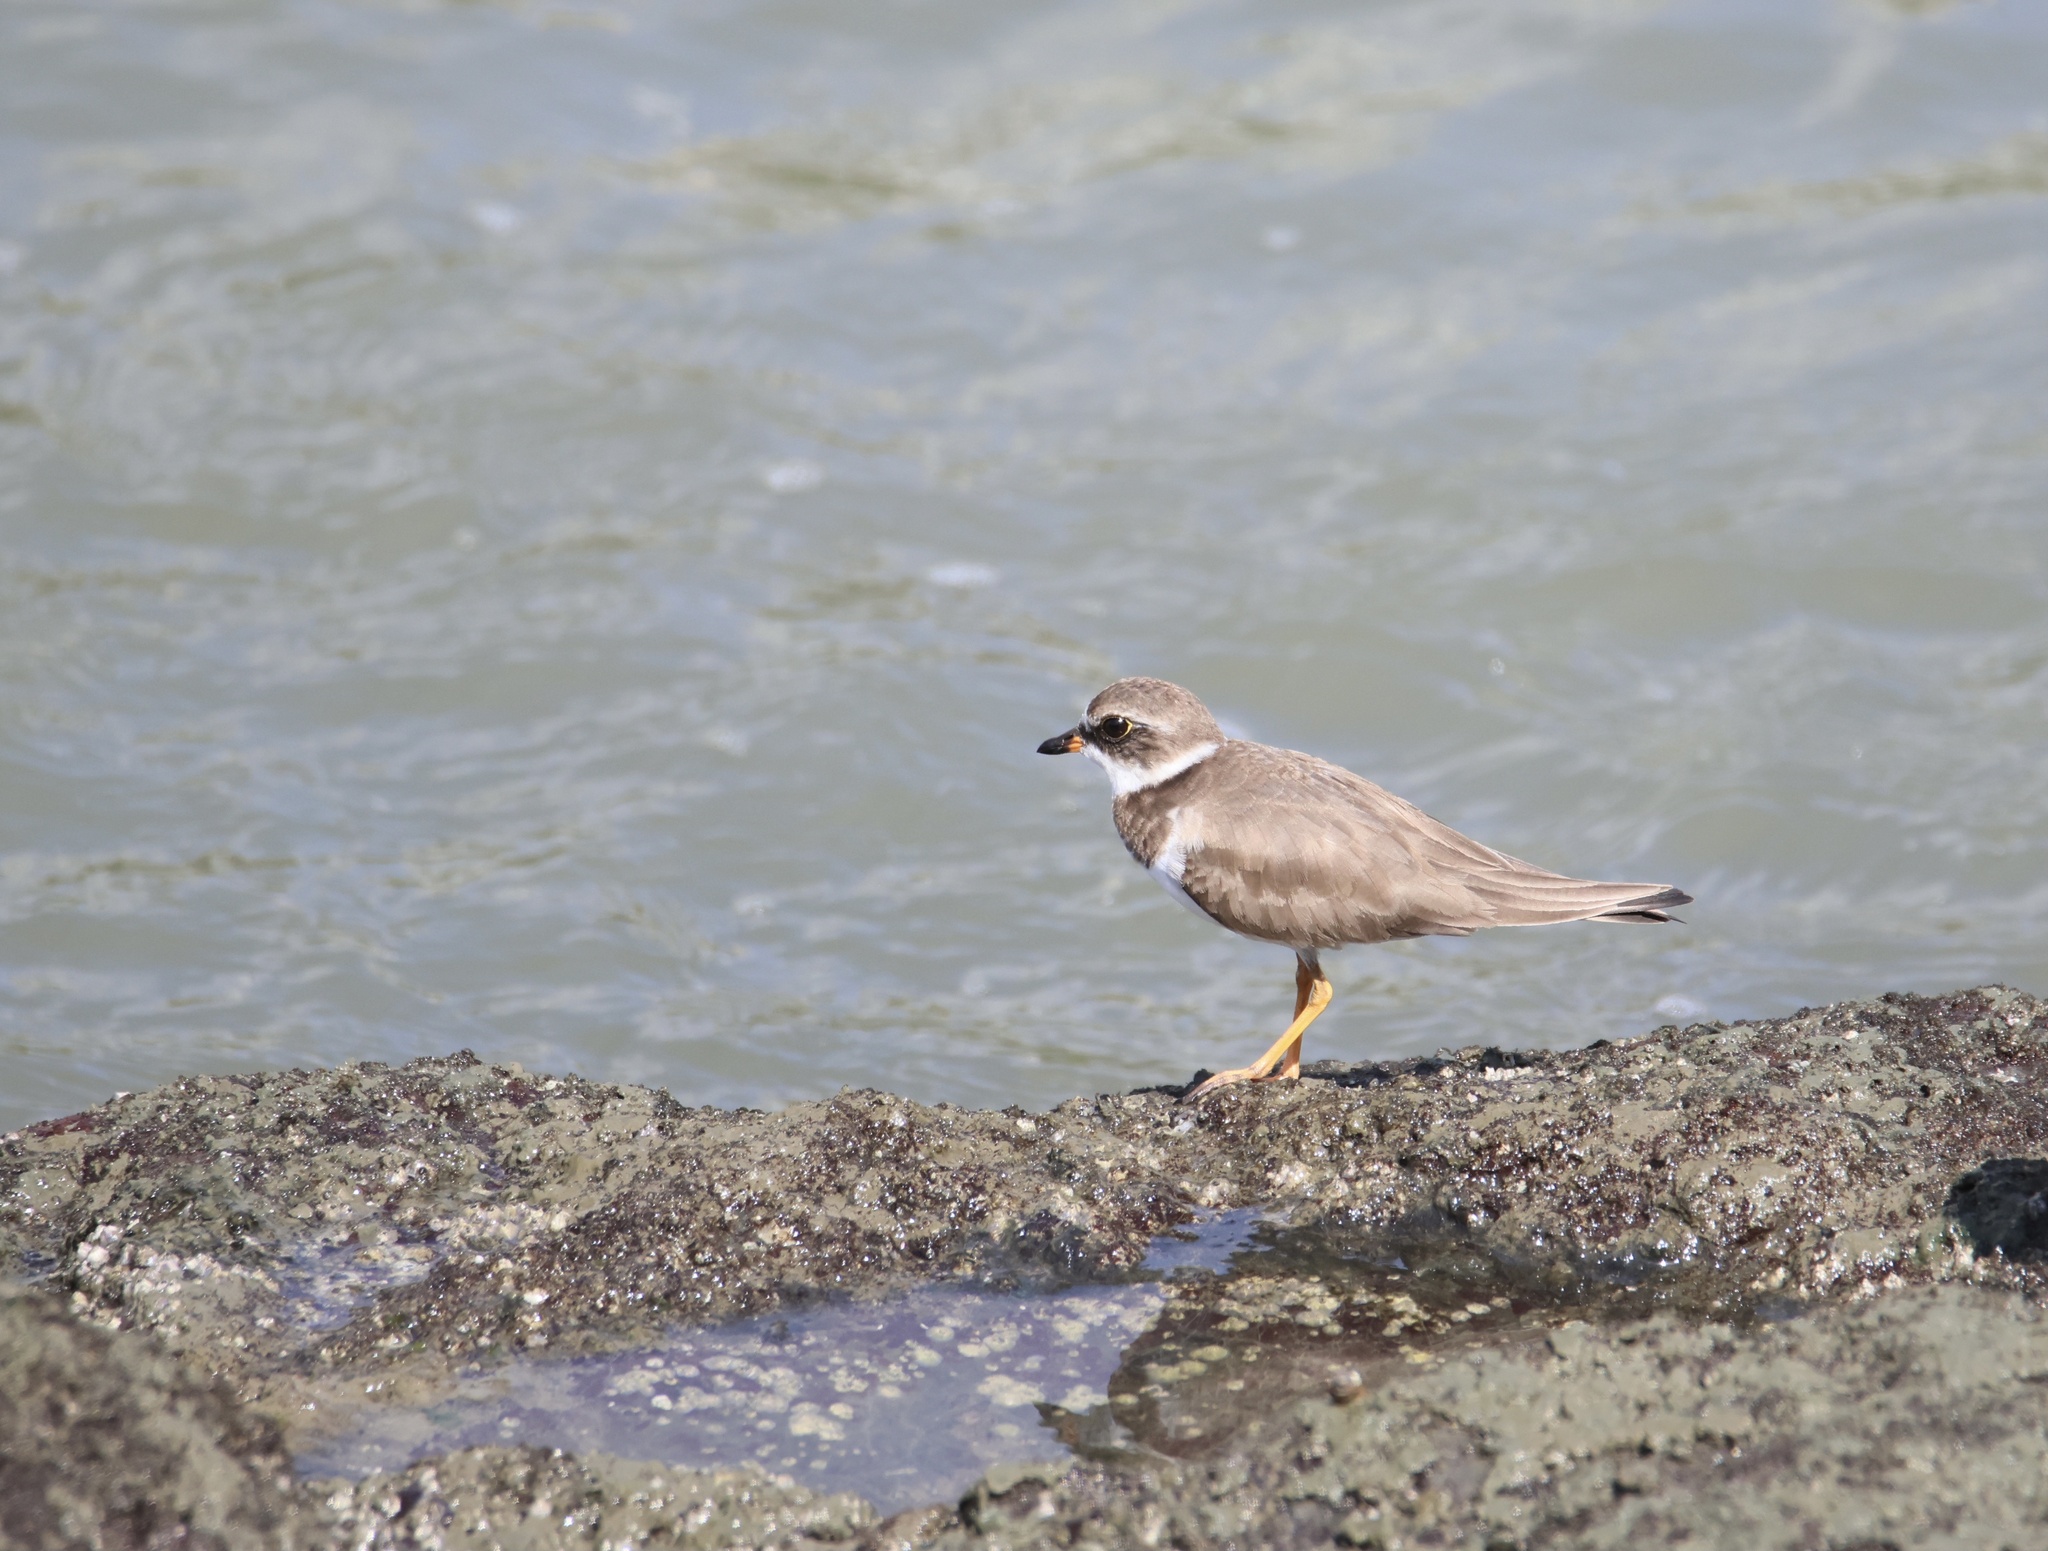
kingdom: Animalia
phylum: Chordata
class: Aves
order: Charadriiformes
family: Charadriidae
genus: Charadrius
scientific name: Charadrius semipalmatus
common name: Semipalmated plover
